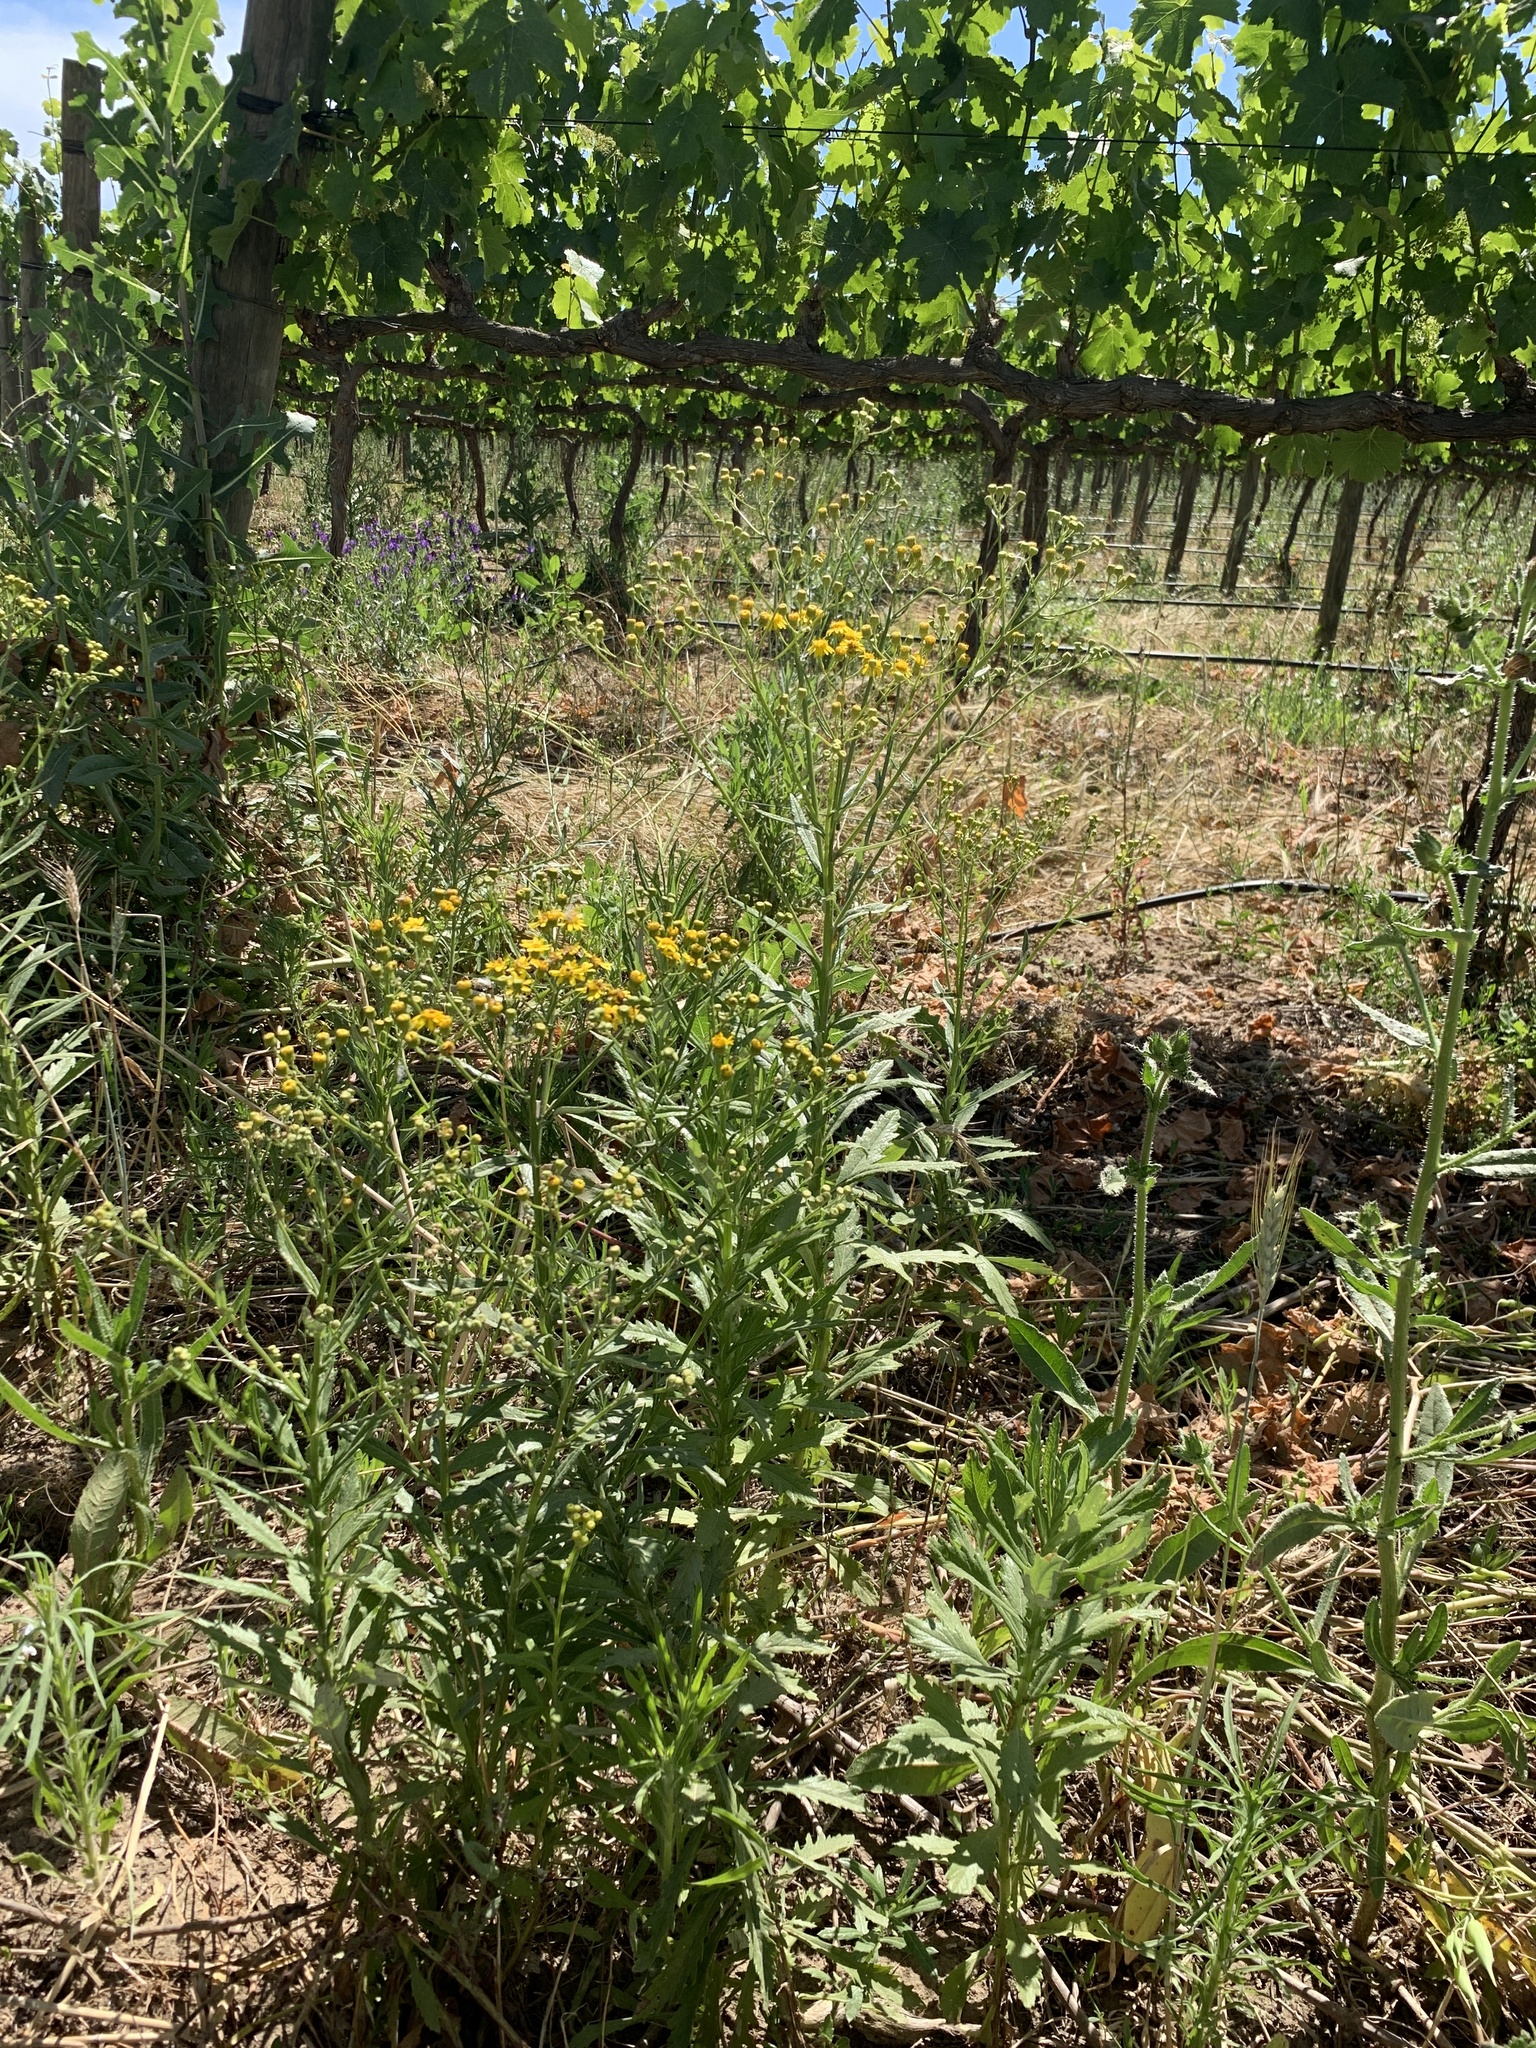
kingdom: Plantae
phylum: Tracheophyta
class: Magnoliopsida
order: Asterales
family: Asteraceae
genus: Senecio
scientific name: Senecio pterophorus
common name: Shoddy ragwort
